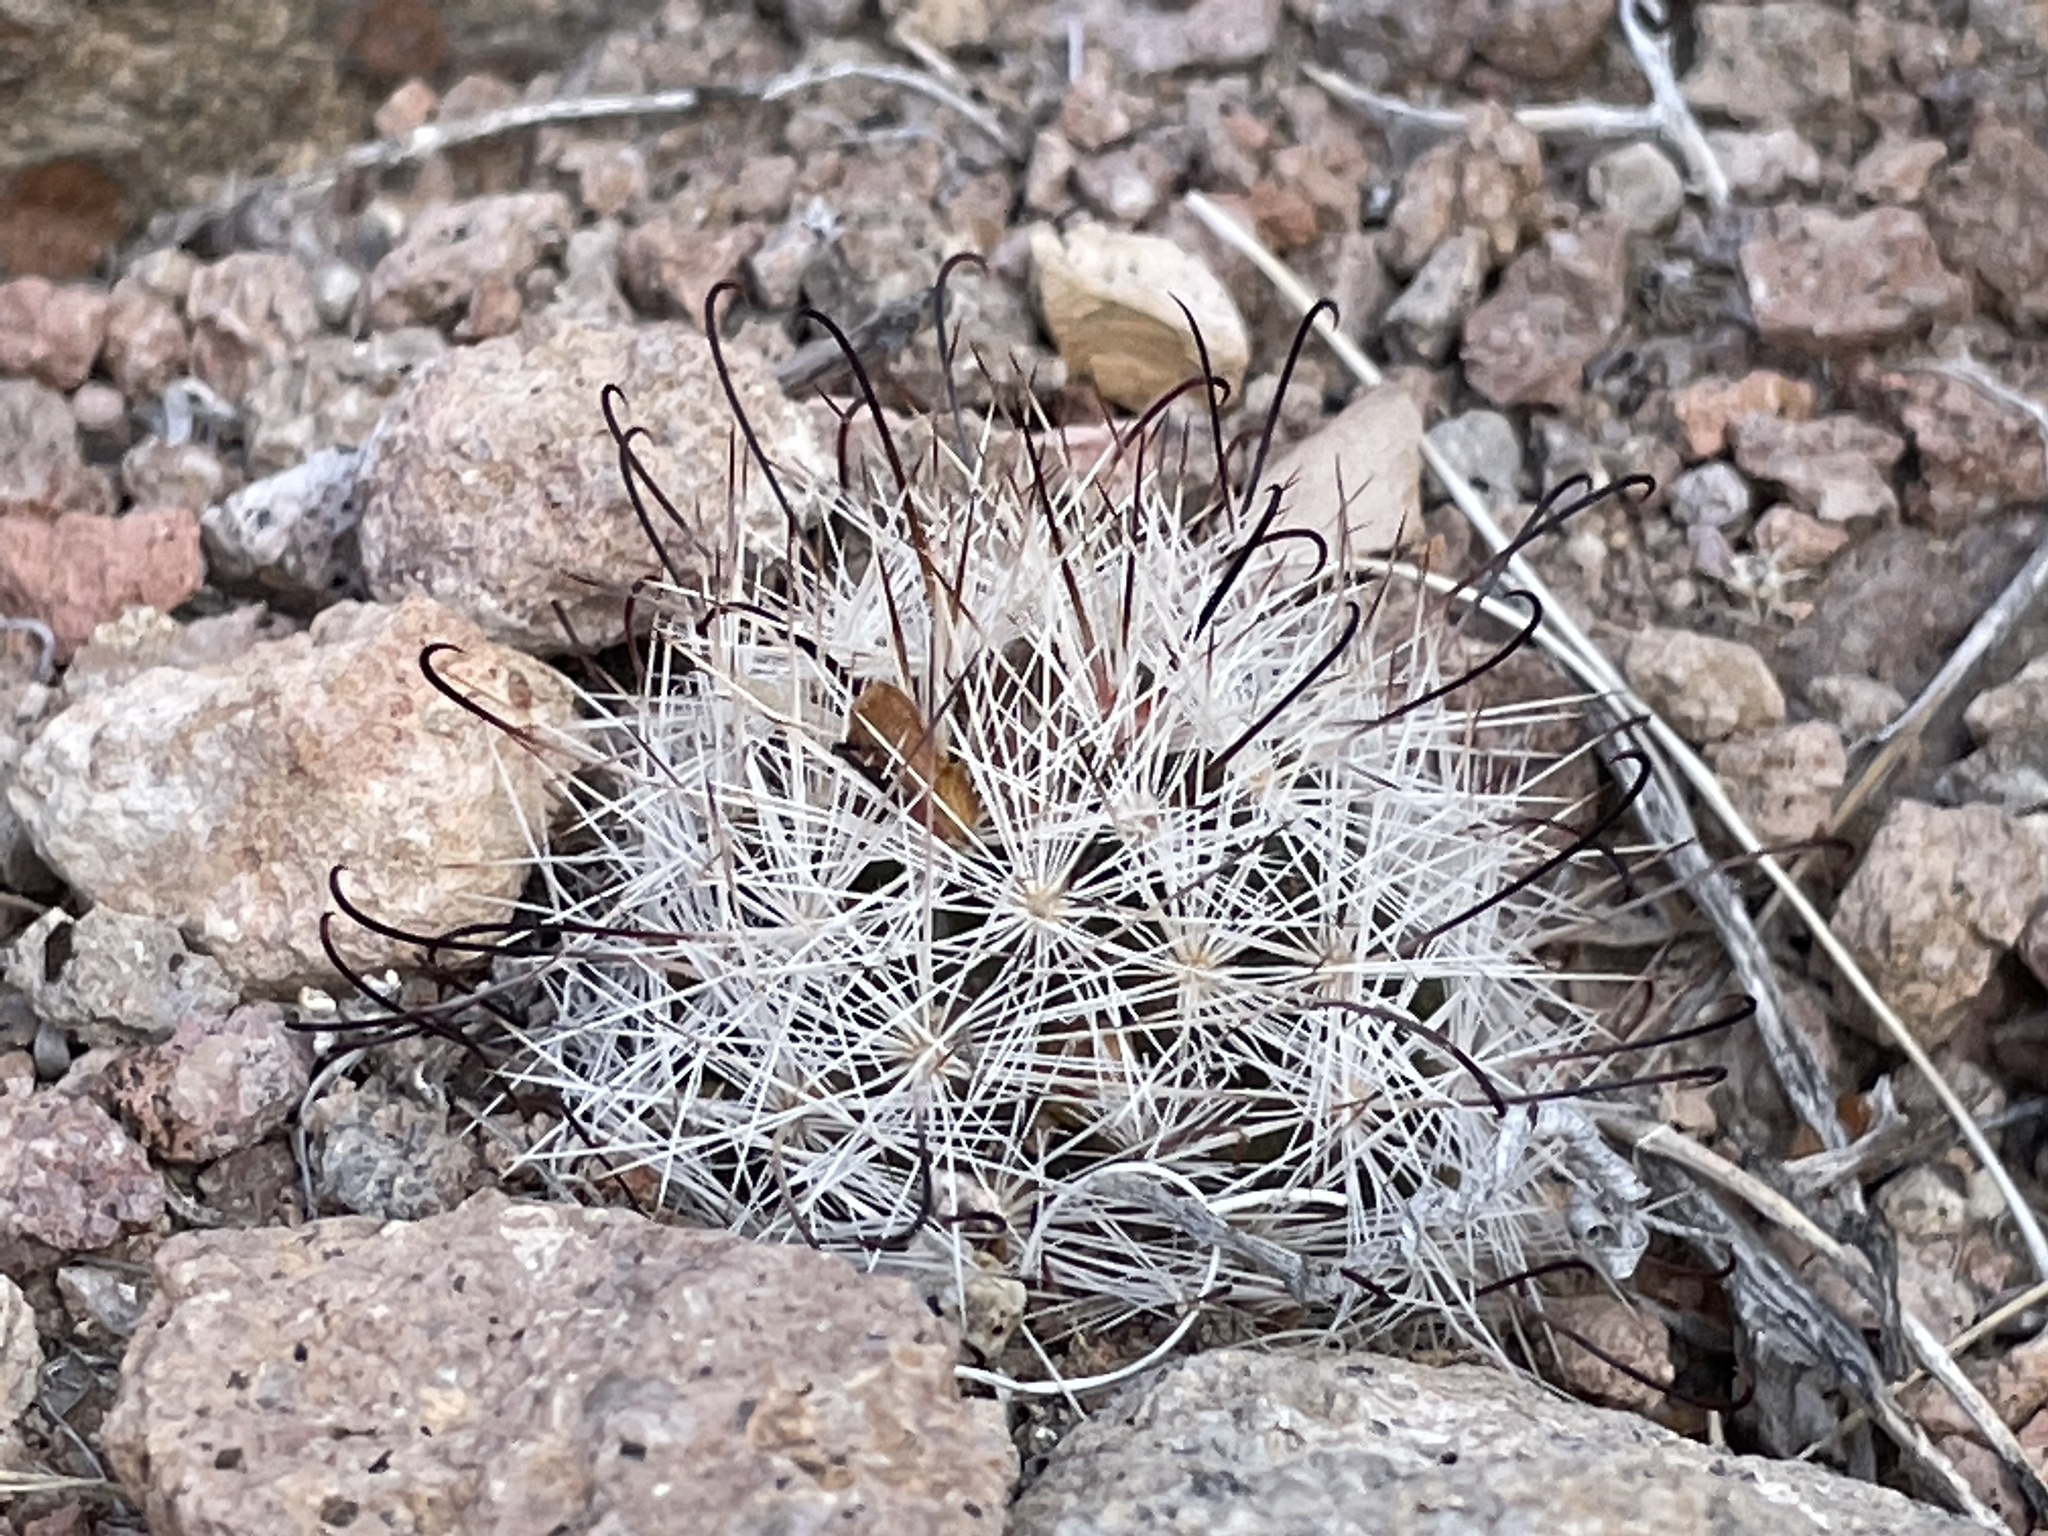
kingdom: Plantae
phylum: Tracheophyta
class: Magnoliopsida
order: Caryophyllales
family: Cactaceae
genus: Cochemiea
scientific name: Cochemiea tetrancistra
